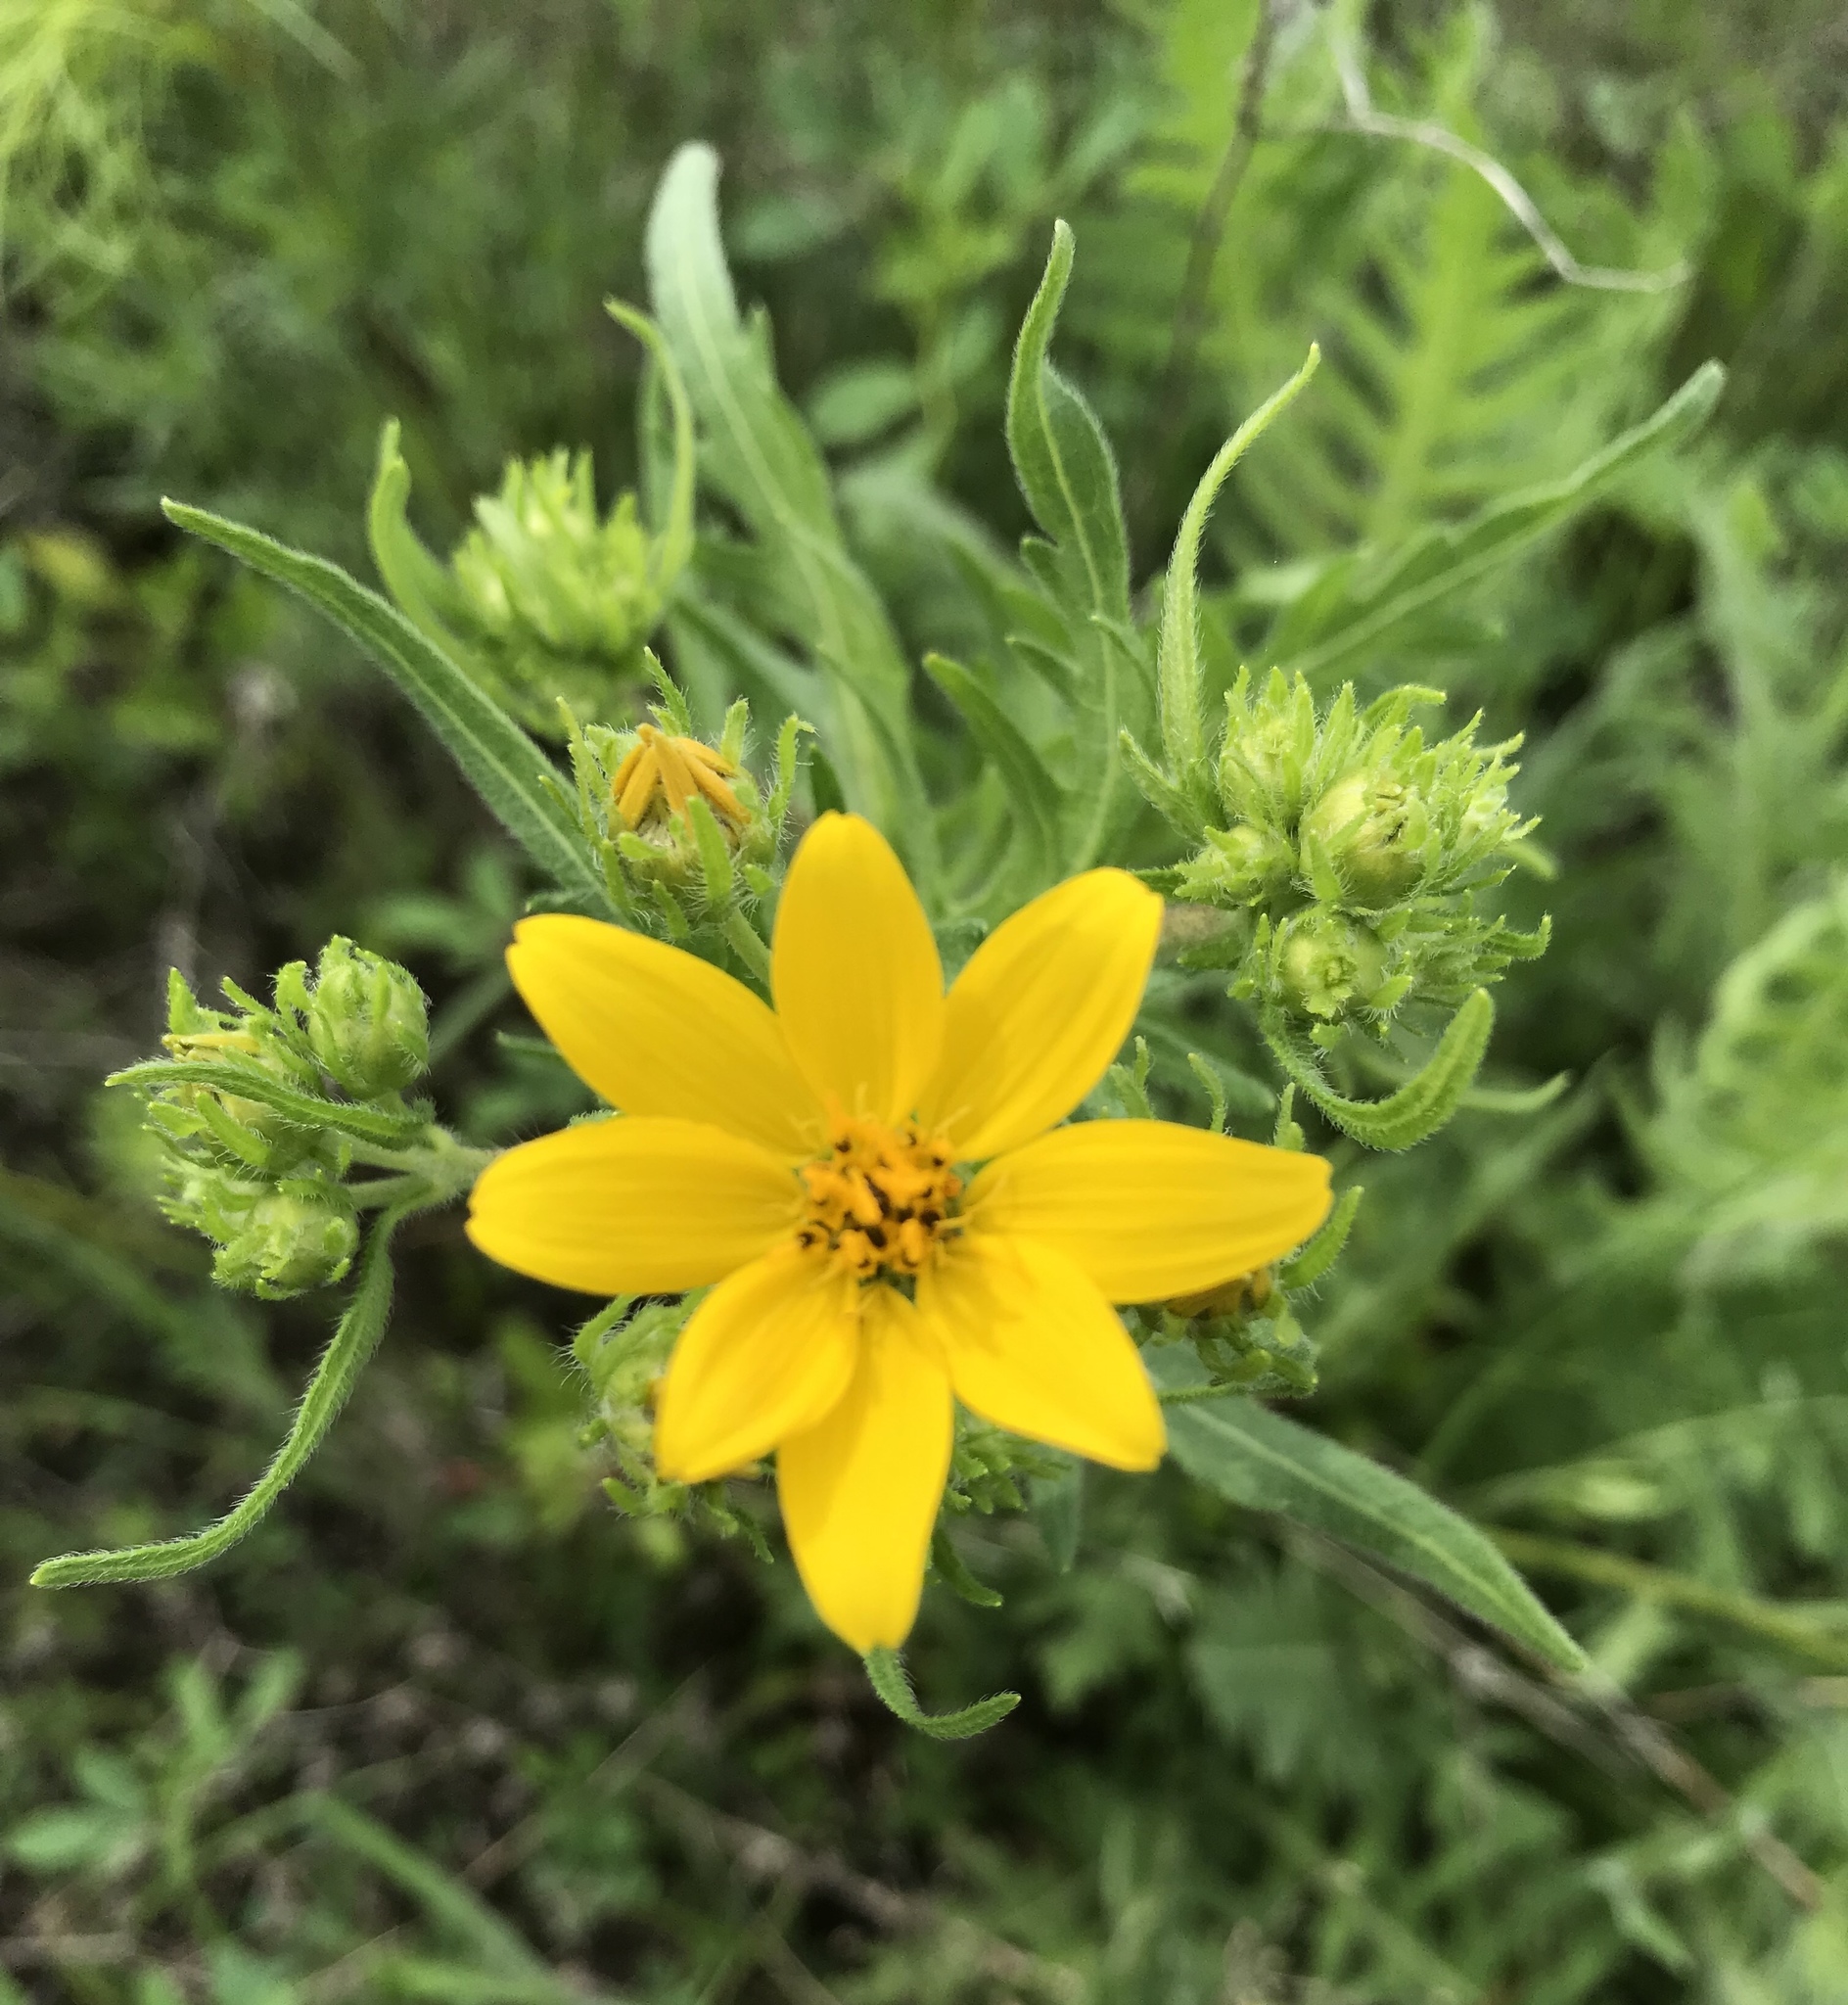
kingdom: Plantae
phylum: Tracheophyta
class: Magnoliopsida
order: Asterales
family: Asteraceae
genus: Engelmannia
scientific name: Engelmannia peristenia
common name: Engelmann's daisy
